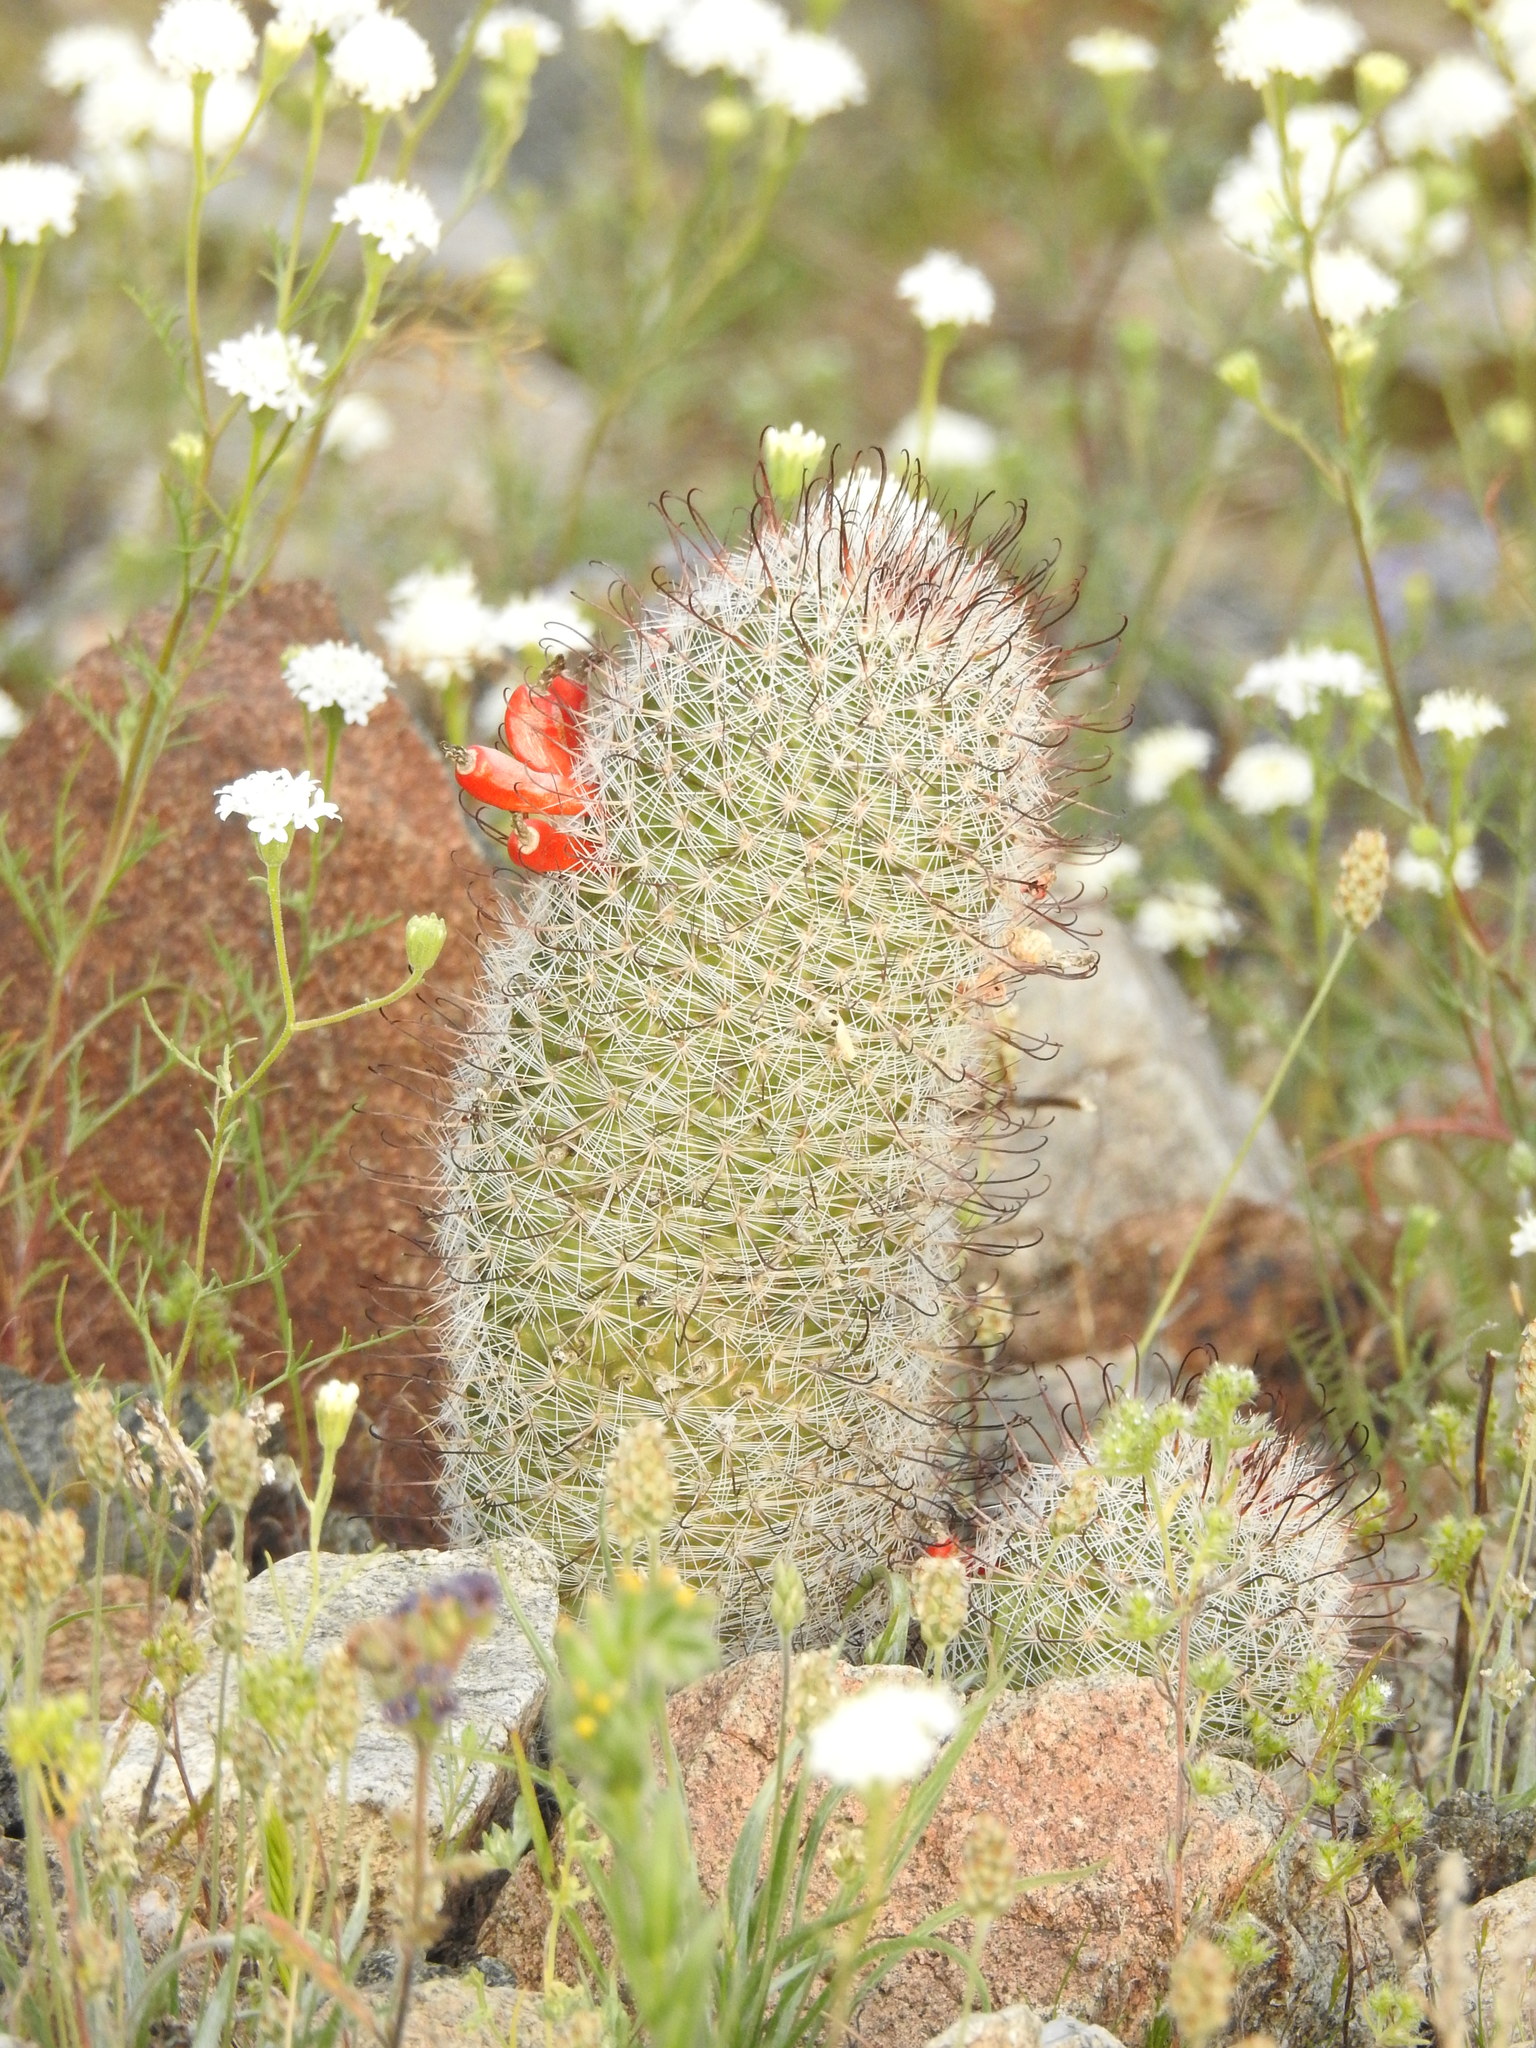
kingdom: Plantae
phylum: Tracheophyta
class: Magnoliopsida
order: Caryophyllales
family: Cactaceae
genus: Cochemiea
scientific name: Cochemiea grahamii
